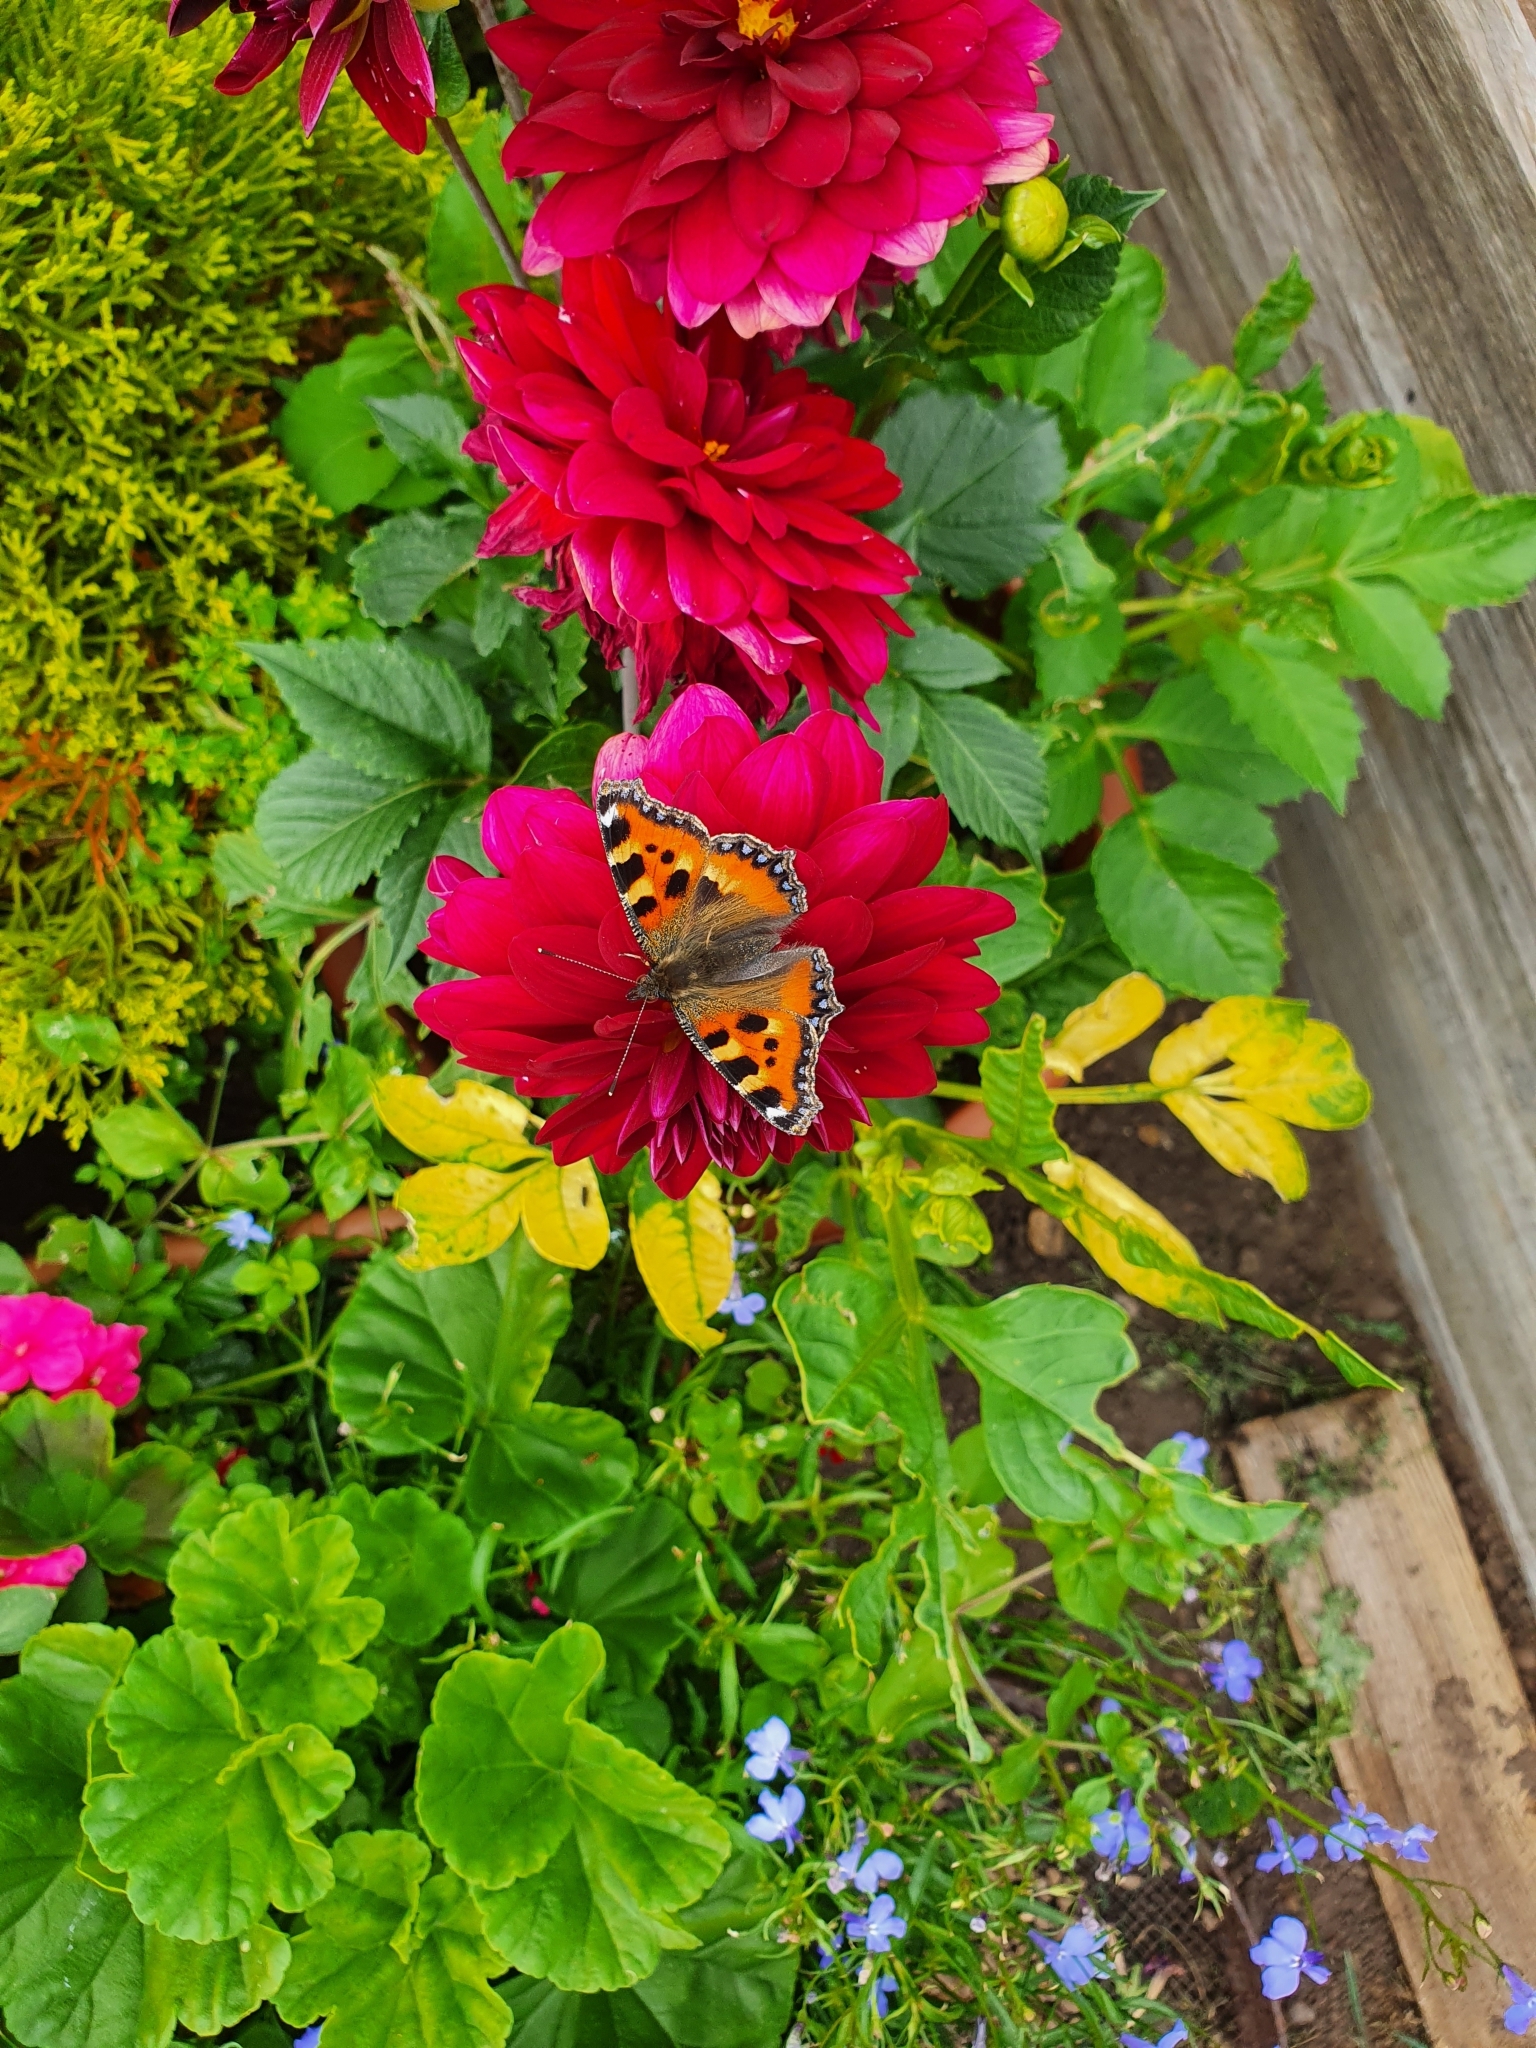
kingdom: Animalia
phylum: Arthropoda
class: Insecta
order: Lepidoptera
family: Nymphalidae
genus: Aglais
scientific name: Aglais urticae
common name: Small tortoiseshell
